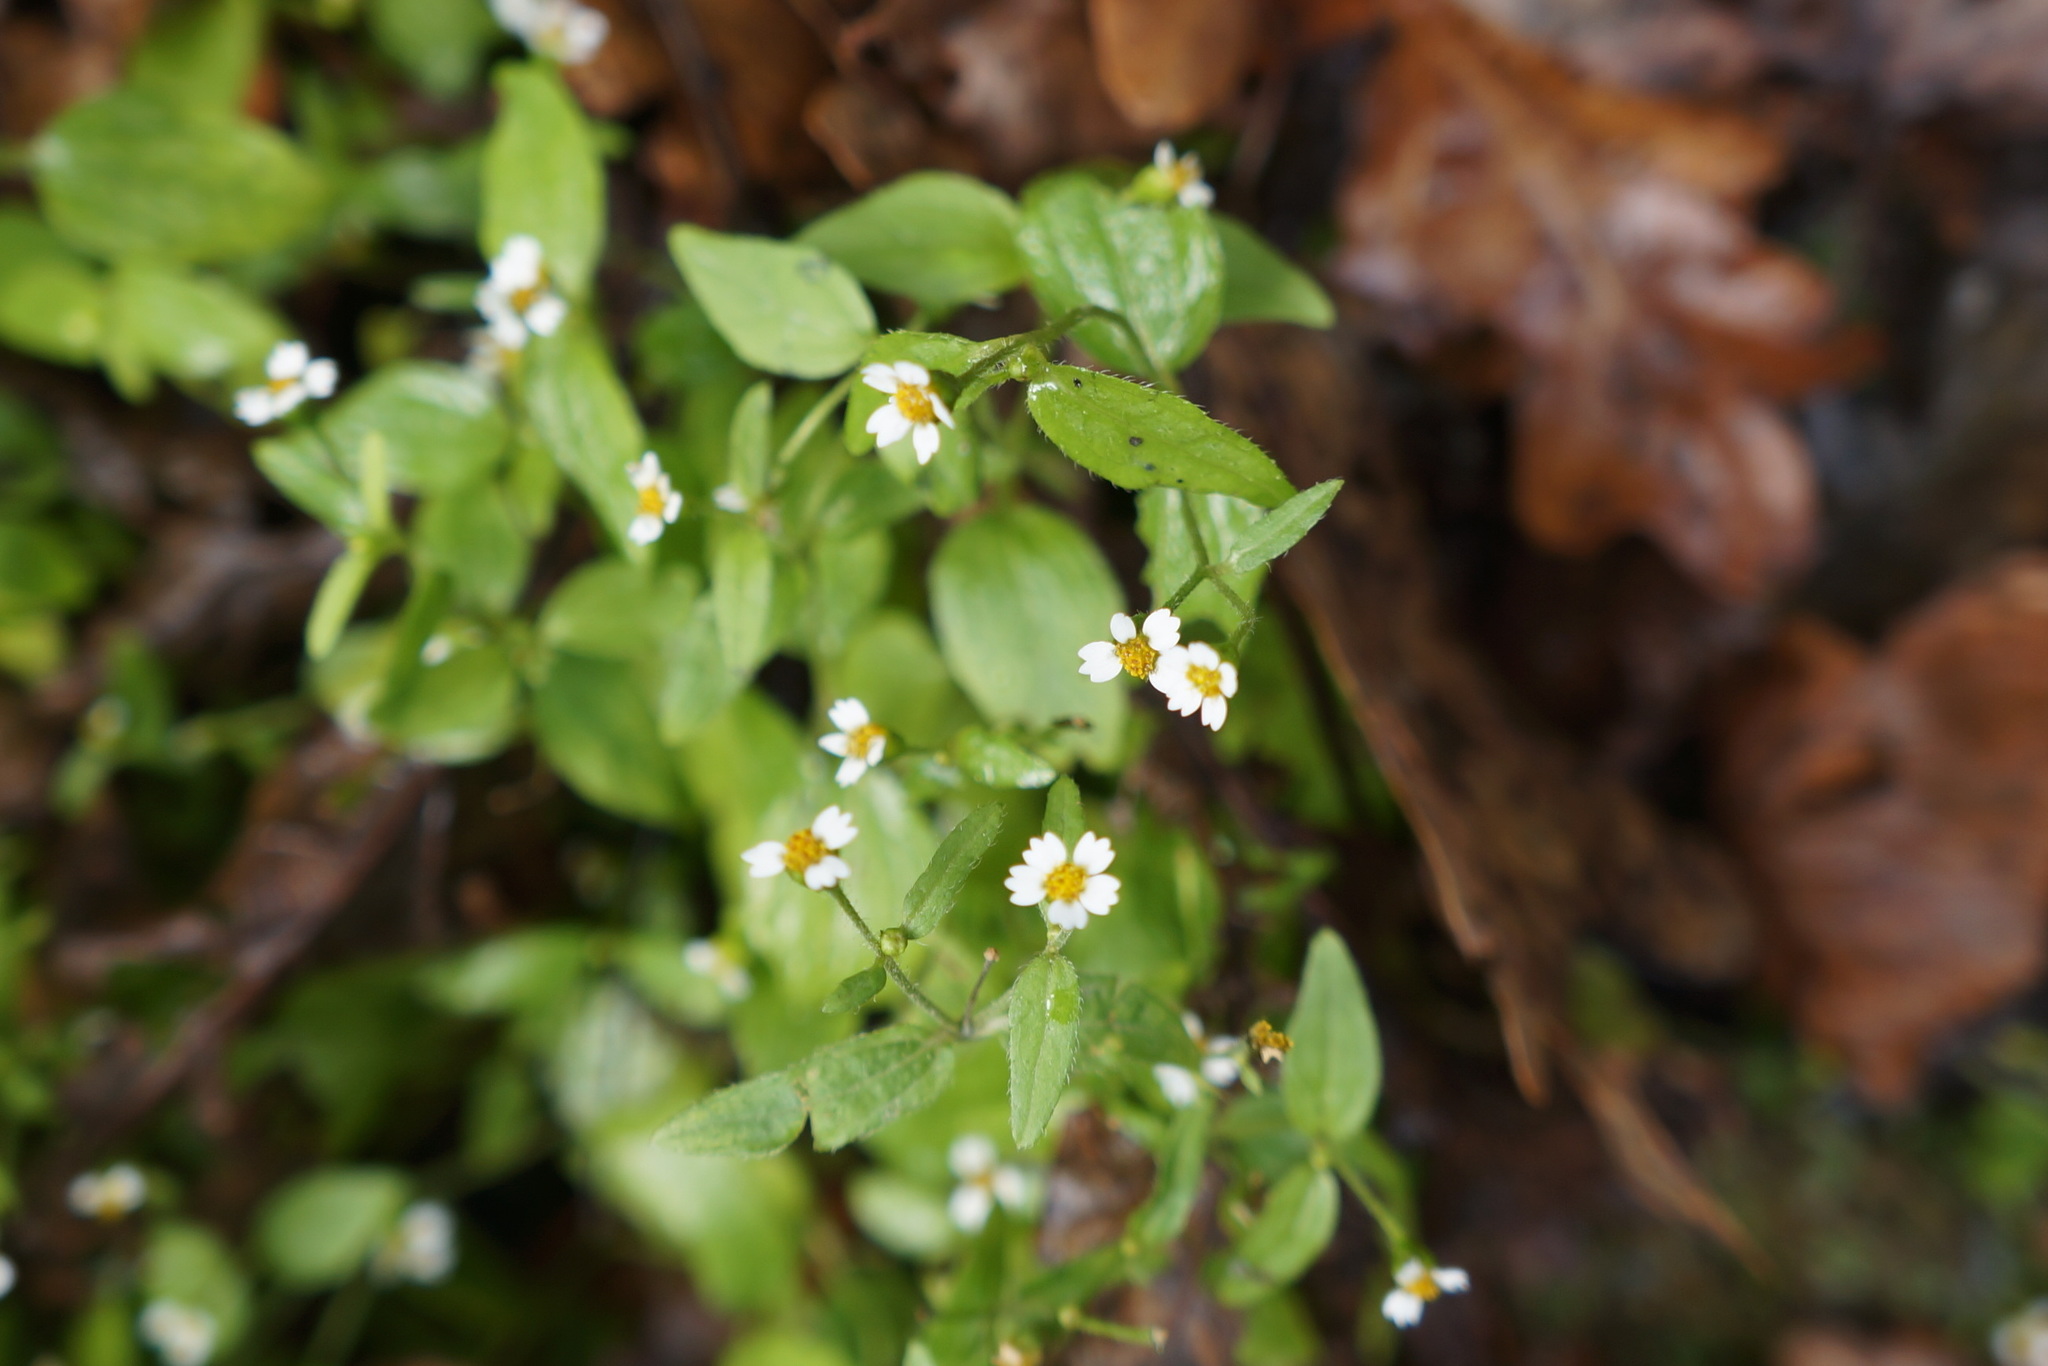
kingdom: Plantae
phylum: Tracheophyta
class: Magnoliopsida
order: Asterales
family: Asteraceae
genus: Galinsoga
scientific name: Galinsoga quadriradiata
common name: Shaggy soldier
